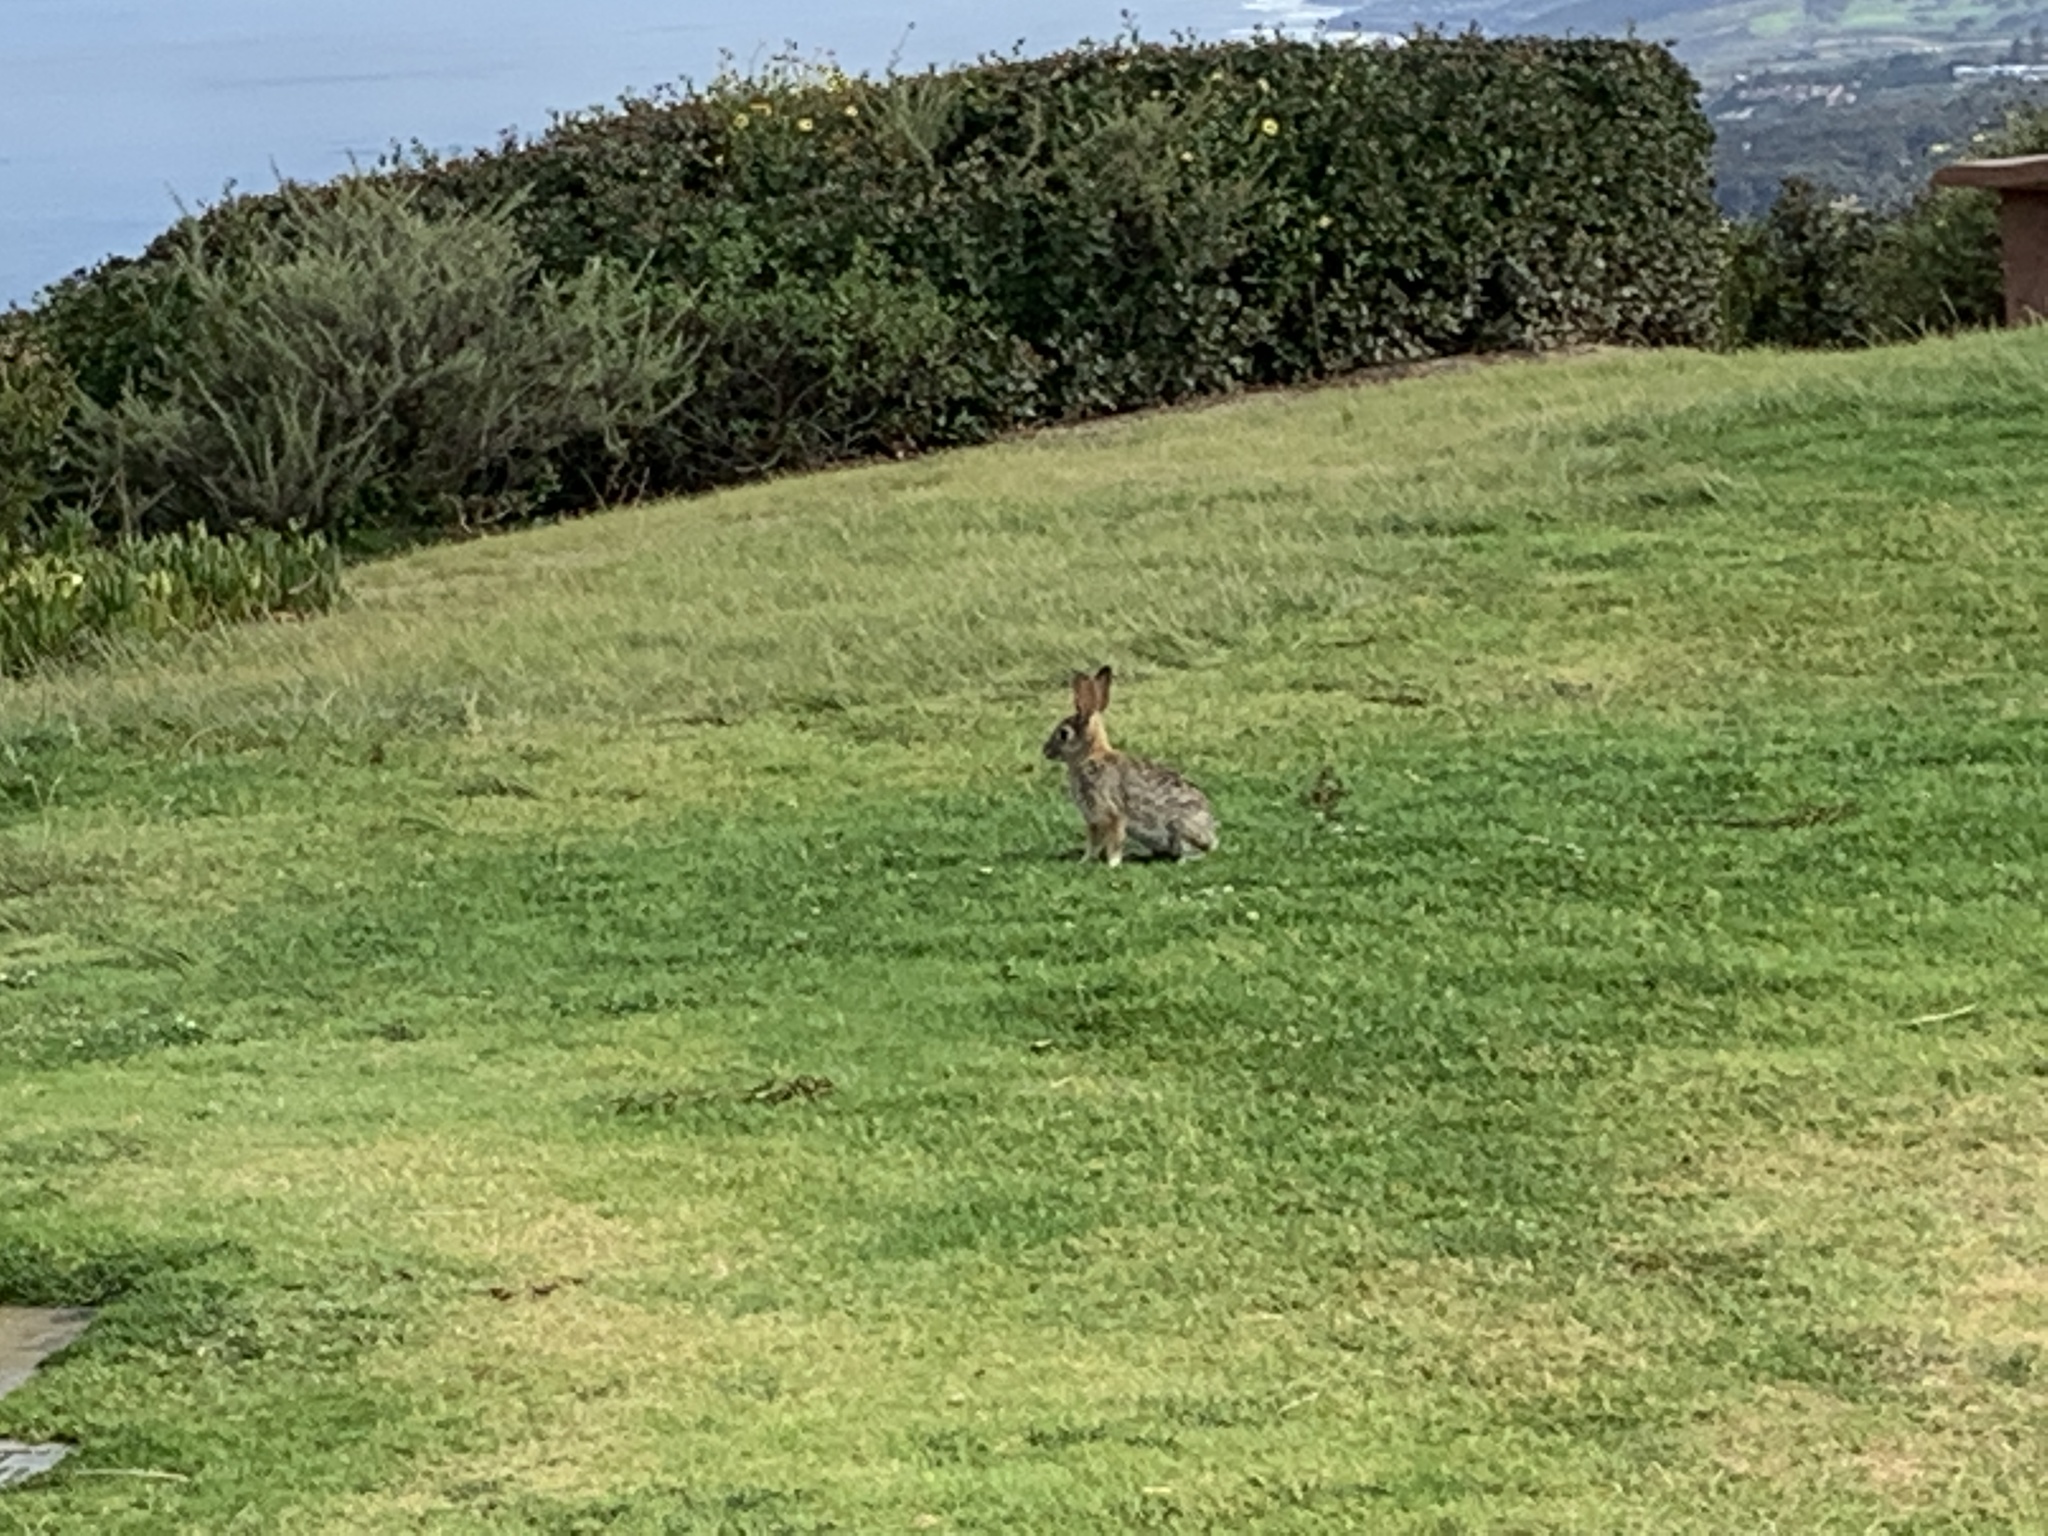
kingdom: Animalia
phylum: Chordata
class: Mammalia
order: Lagomorpha
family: Leporidae
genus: Sylvilagus
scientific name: Sylvilagus audubonii
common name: Desert cottontail
